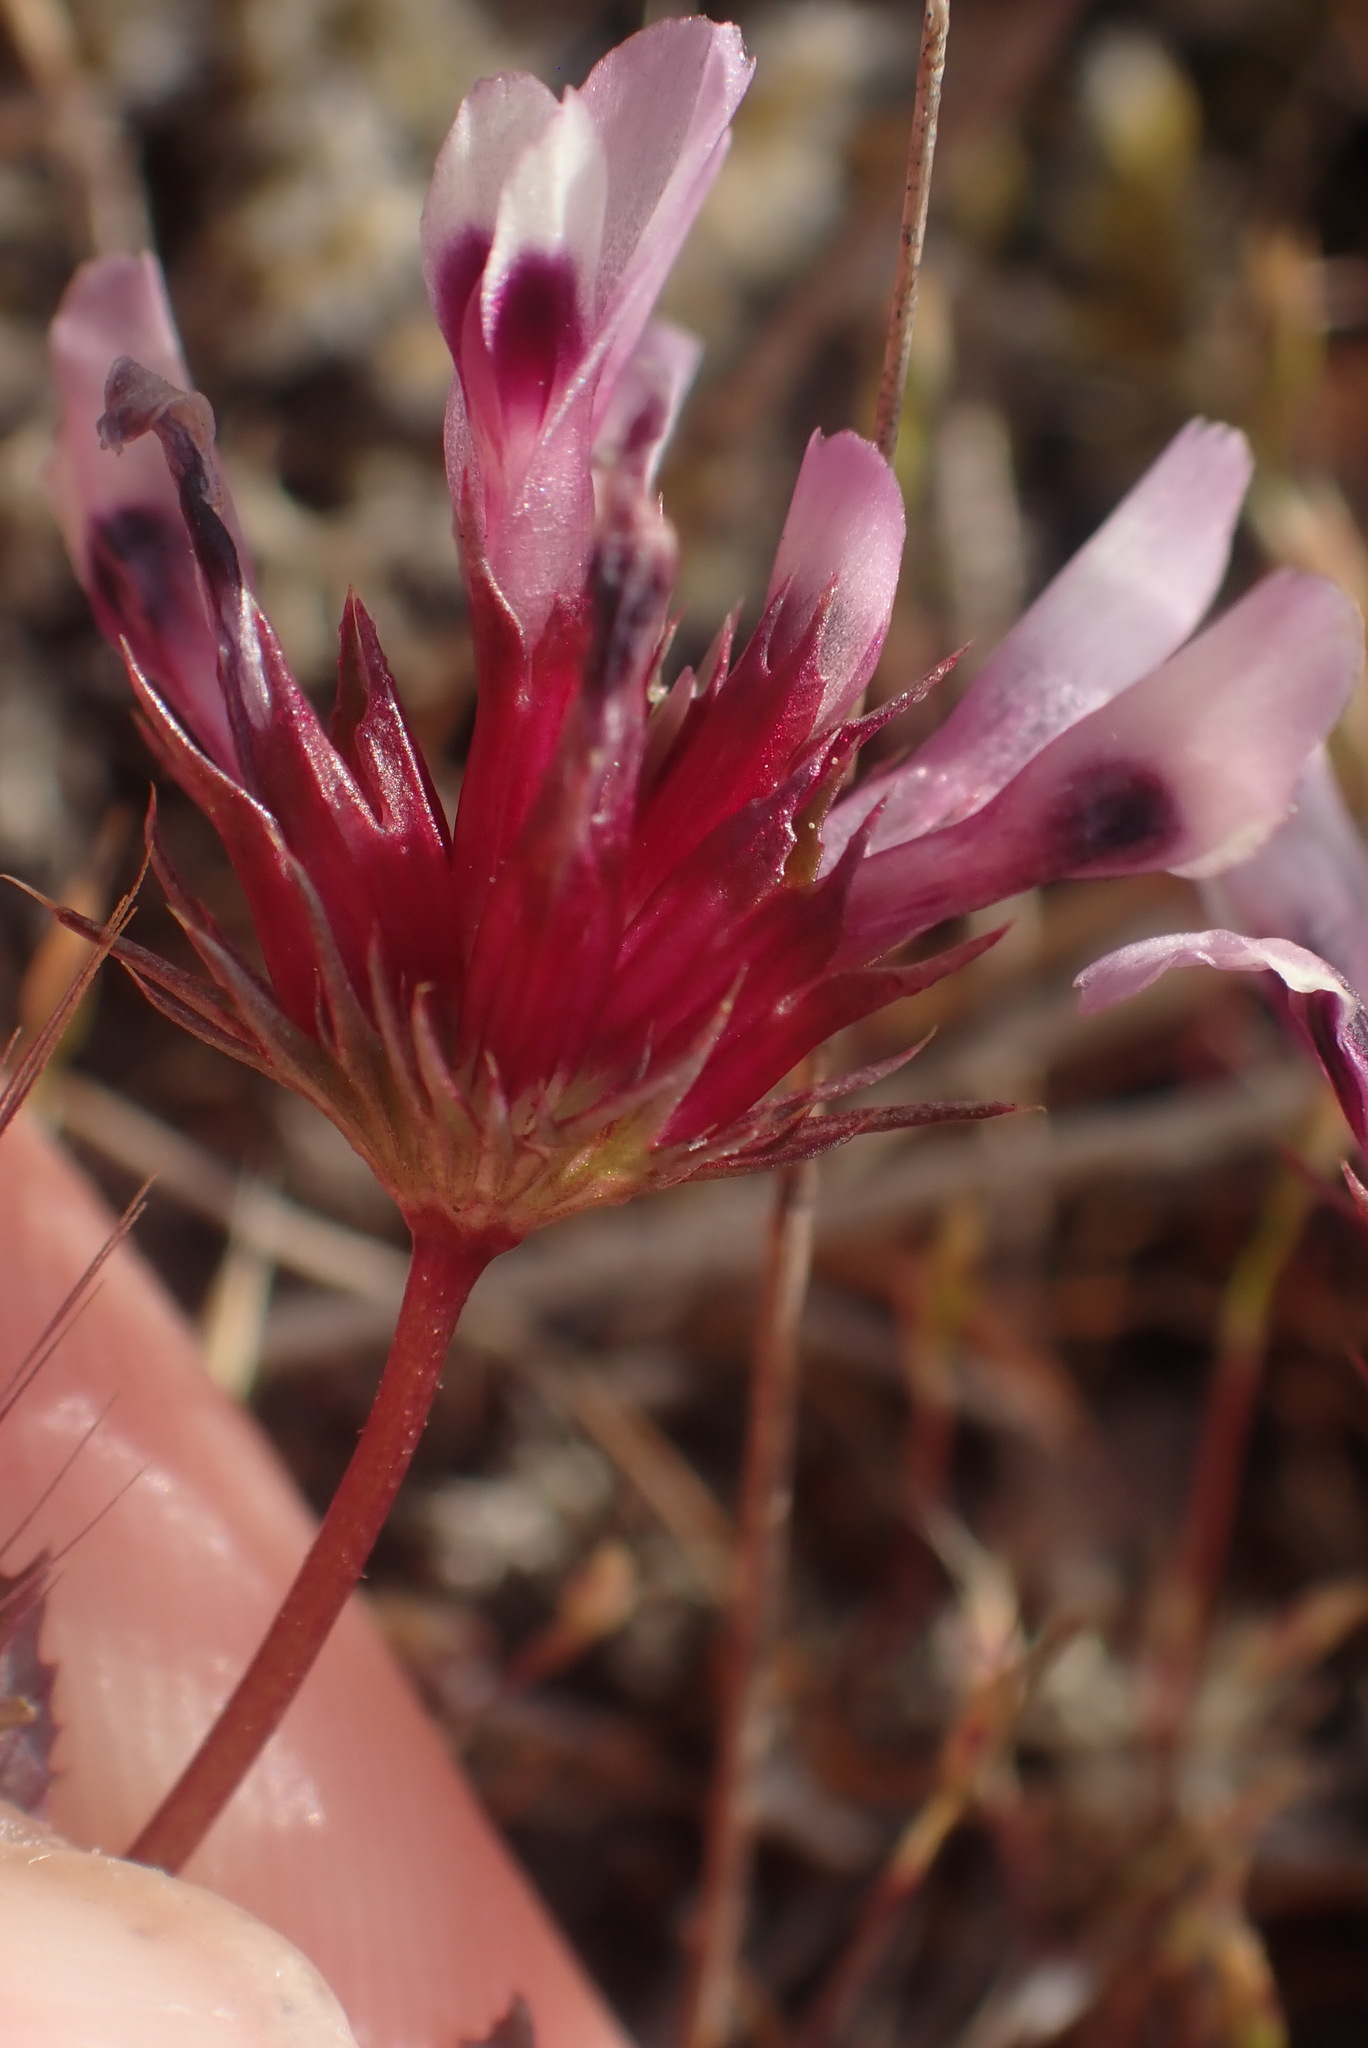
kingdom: Plantae
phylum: Tracheophyta
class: Magnoliopsida
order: Fabales
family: Fabaceae
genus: Trifolium
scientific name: Trifolium willdenovii
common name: Tomcat clover
